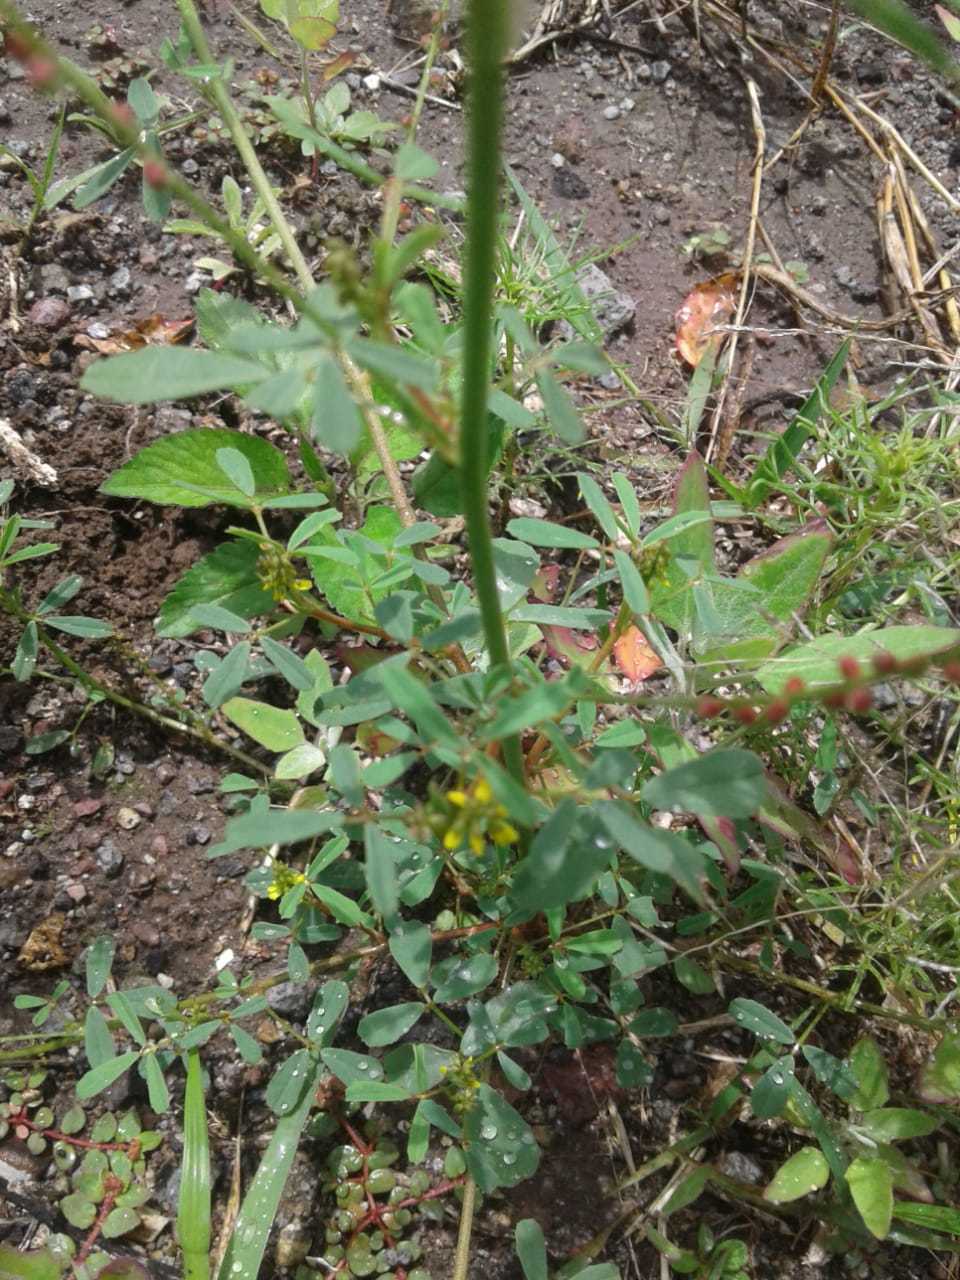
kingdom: Plantae
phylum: Tracheophyta
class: Magnoliopsida
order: Fabales
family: Fabaceae
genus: Melilotus
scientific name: Melilotus indicus
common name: Small melilot
